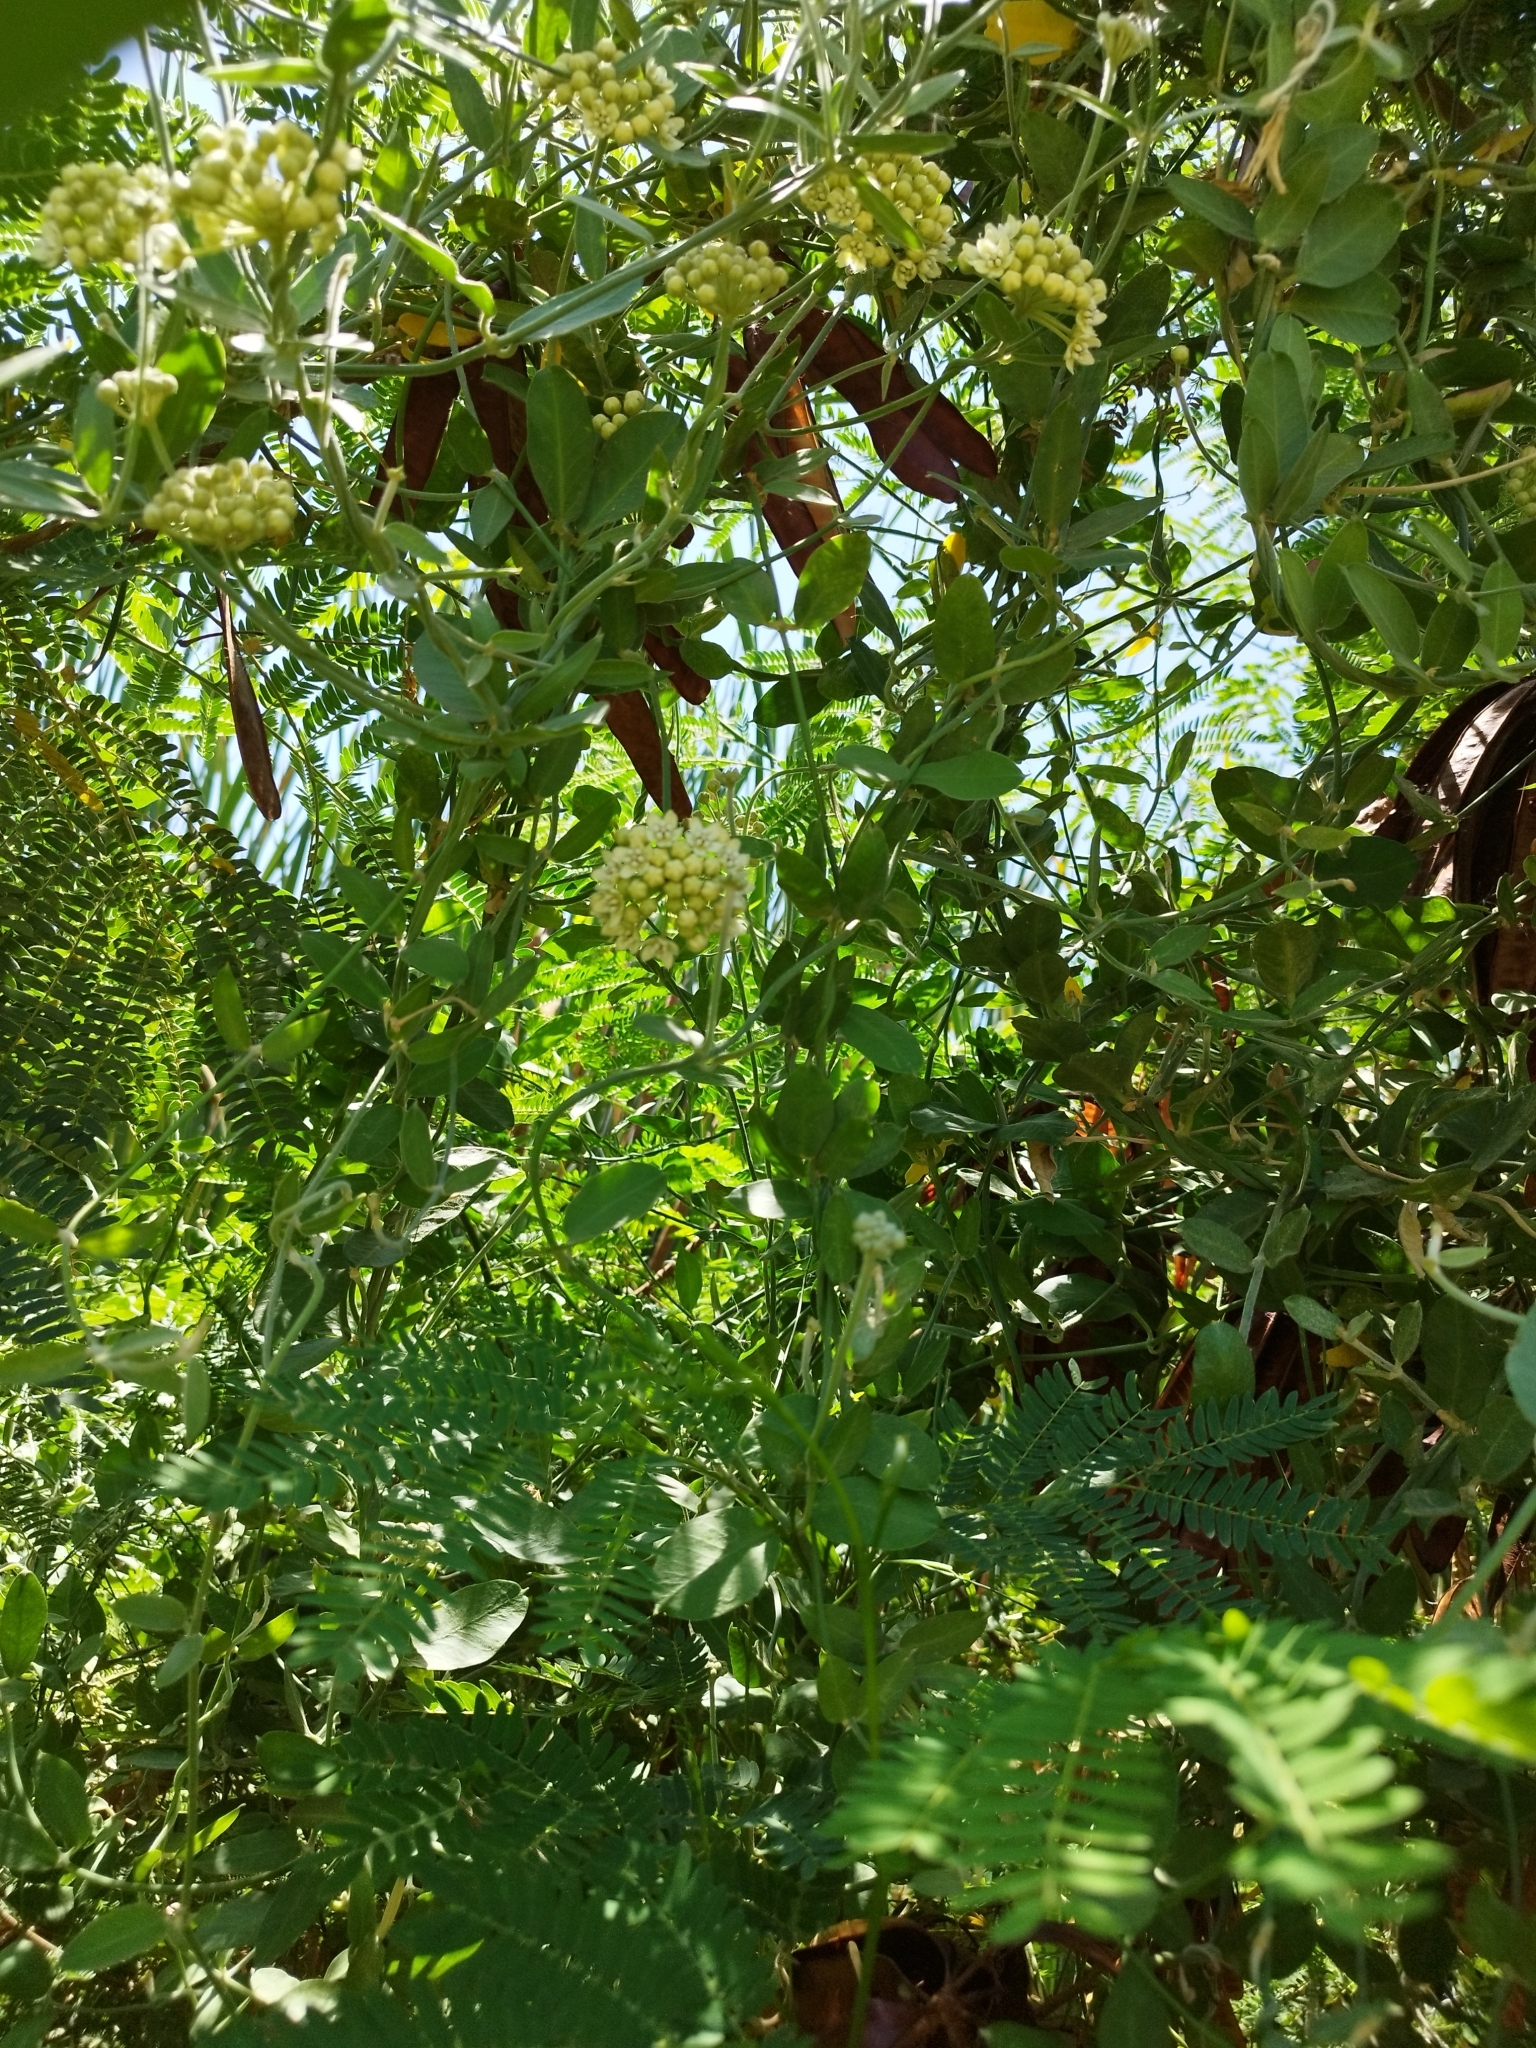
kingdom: Plantae
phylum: Tracheophyta
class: Magnoliopsida
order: Gentianales
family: Apocynaceae
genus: Funastrum
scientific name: Funastrum clausum
